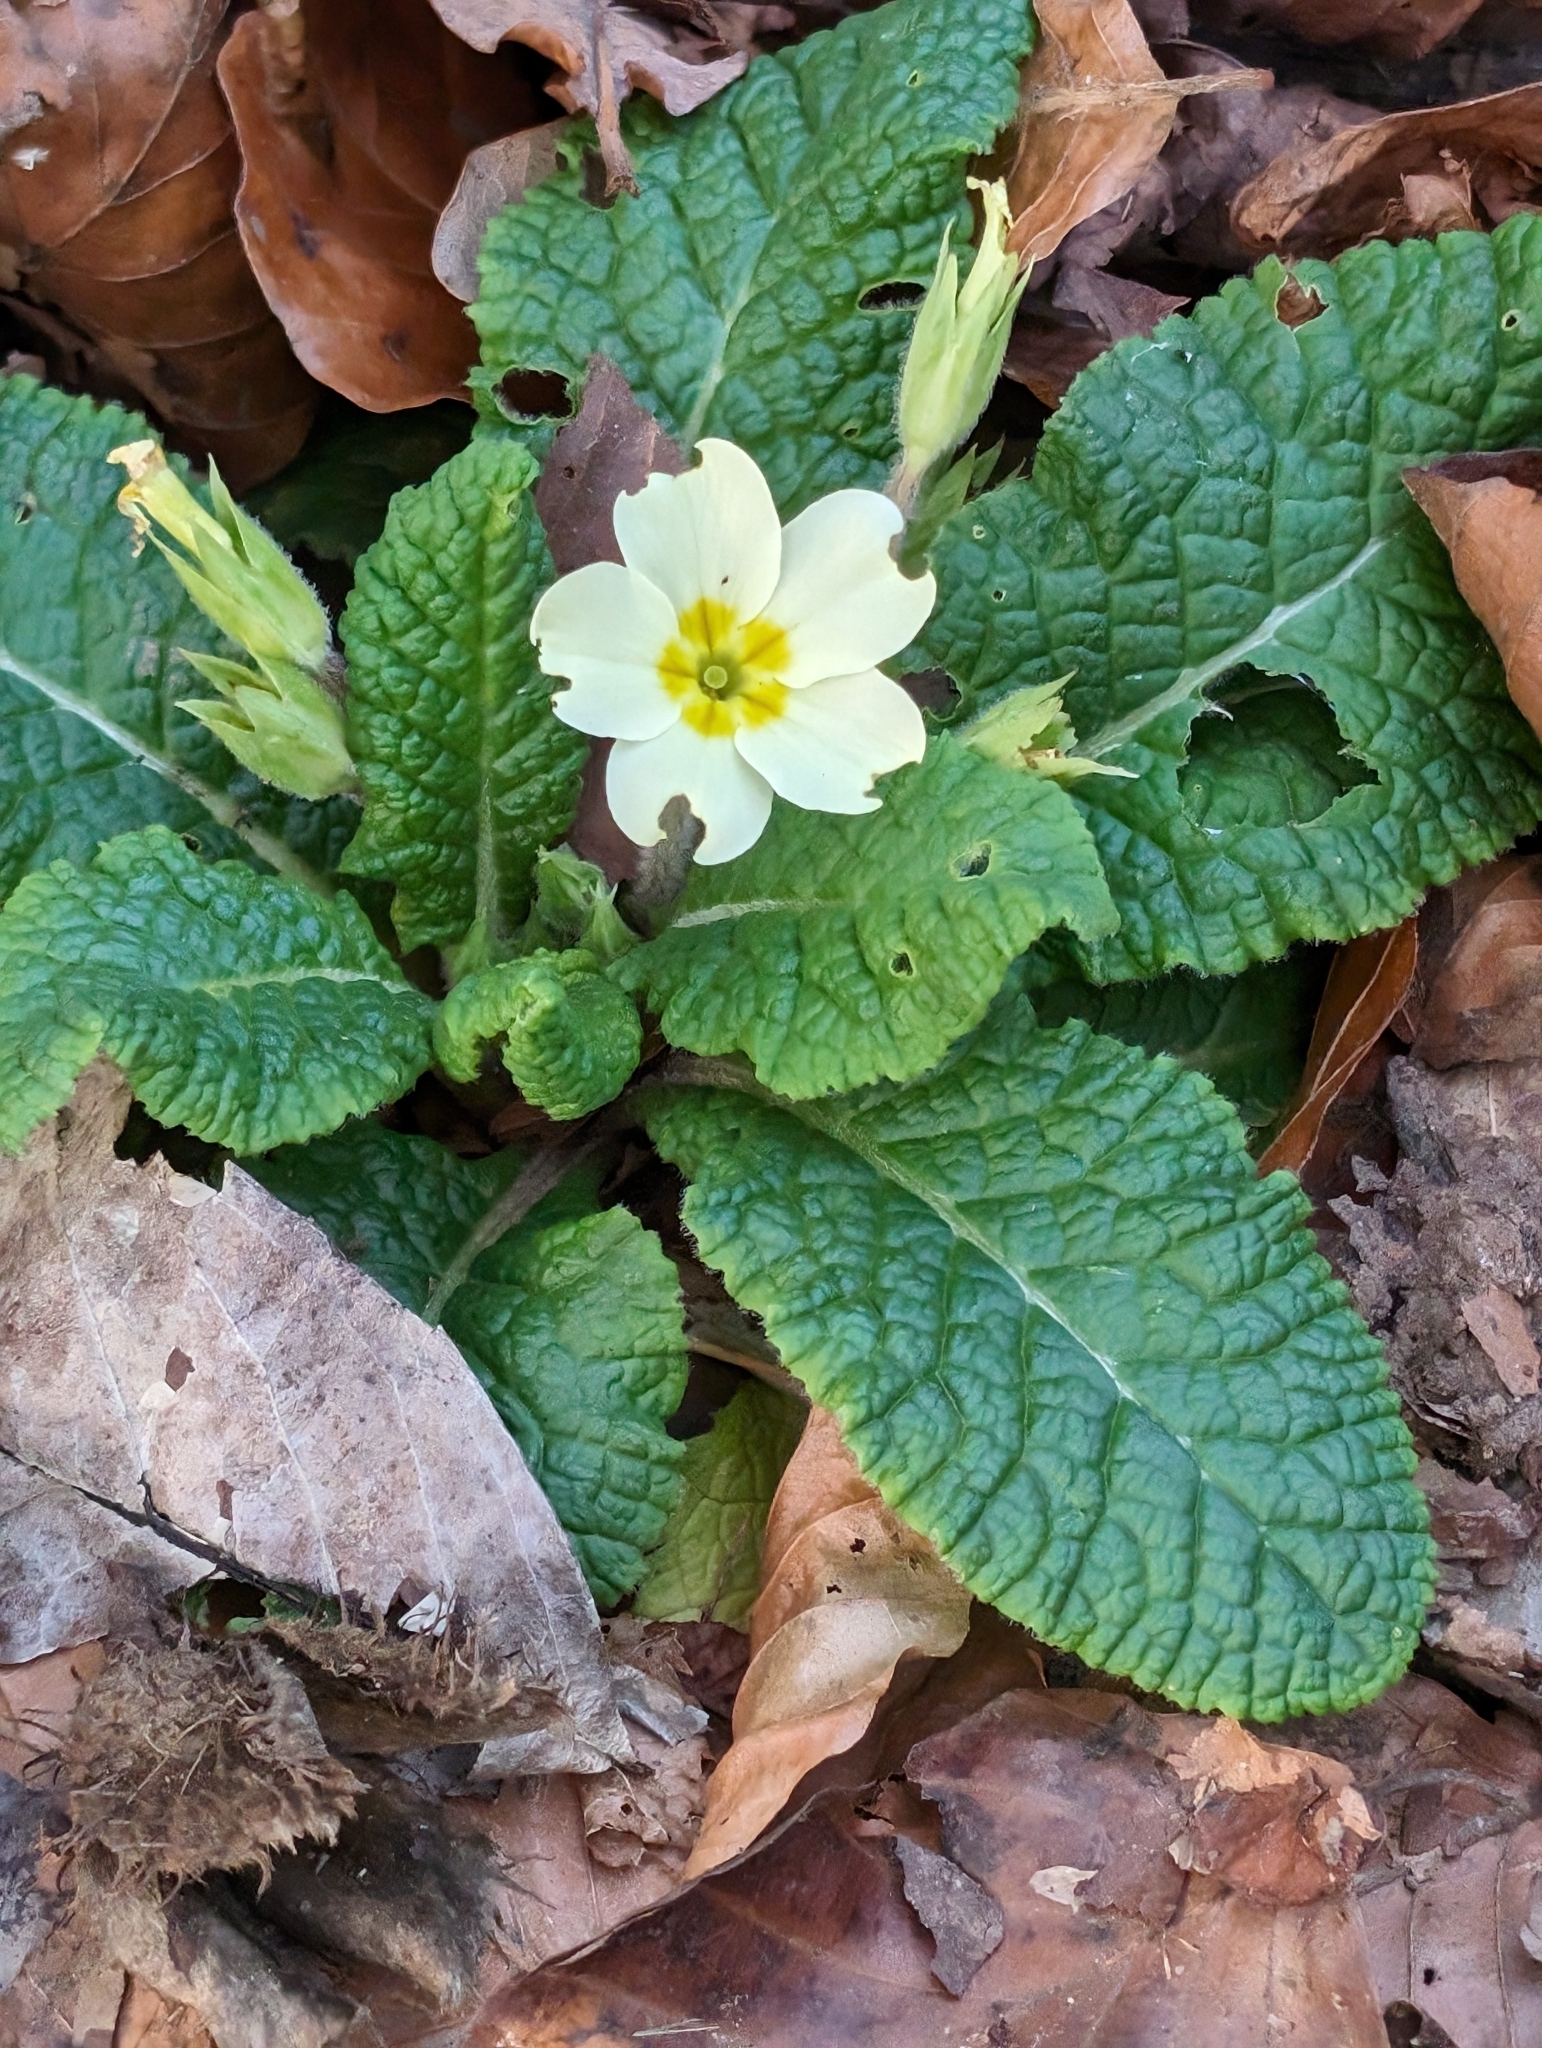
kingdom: Plantae
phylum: Tracheophyta
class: Magnoliopsida
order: Ericales
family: Primulaceae
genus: Primula
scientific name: Primula vulgaris
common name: Primrose
